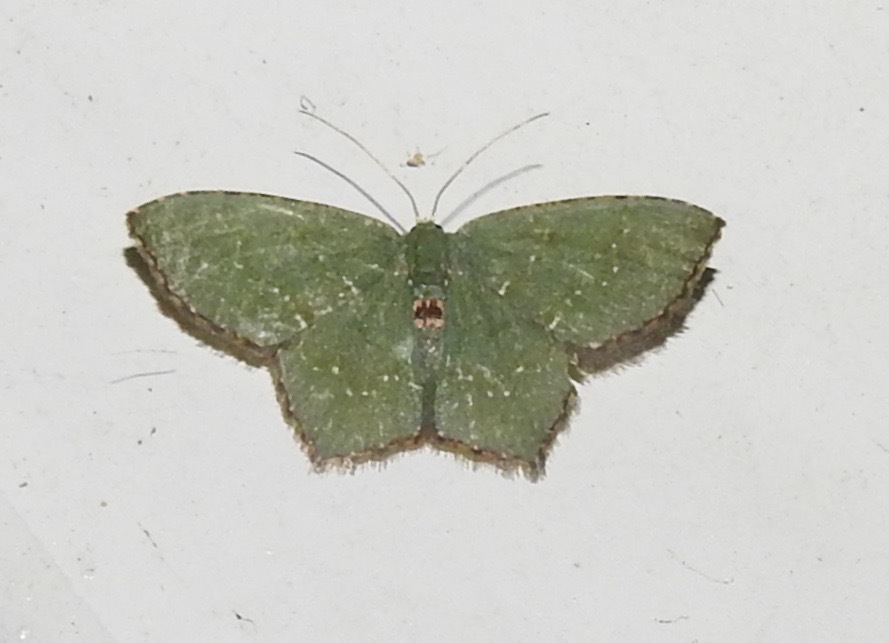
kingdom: Animalia
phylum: Arthropoda
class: Insecta
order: Lepidoptera
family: Geometridae
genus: Chloropteryx
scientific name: Chloropteryx tepperaria
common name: Angle winged emerald moth
